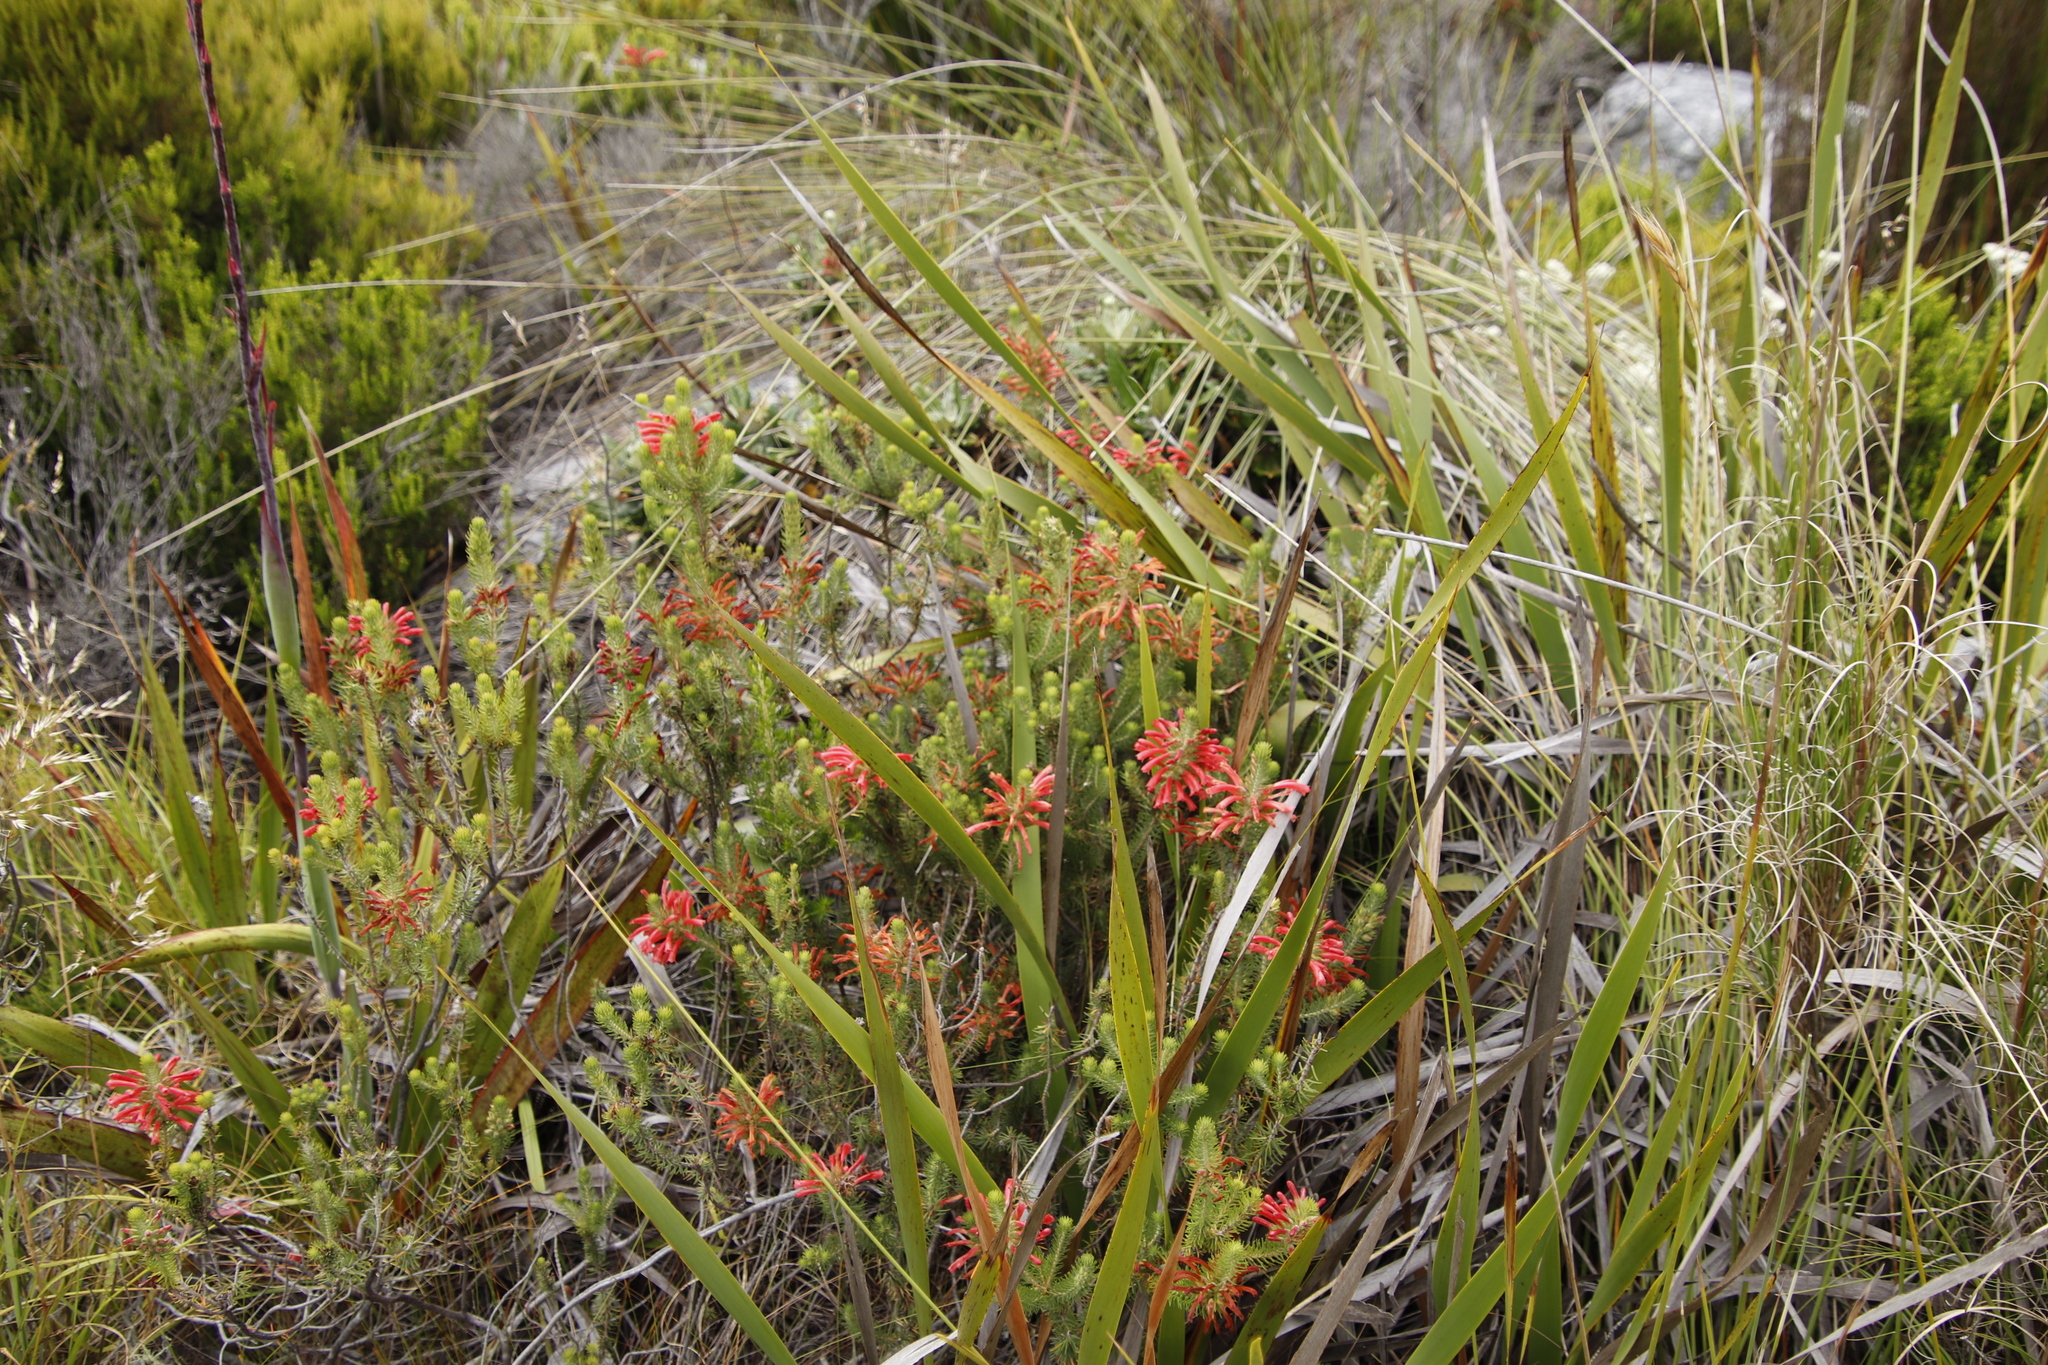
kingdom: Plantae
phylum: Tracheophyta
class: Magnoliopsida
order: Ericales
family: Ericaceae
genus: Erica
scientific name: Erica abietina
